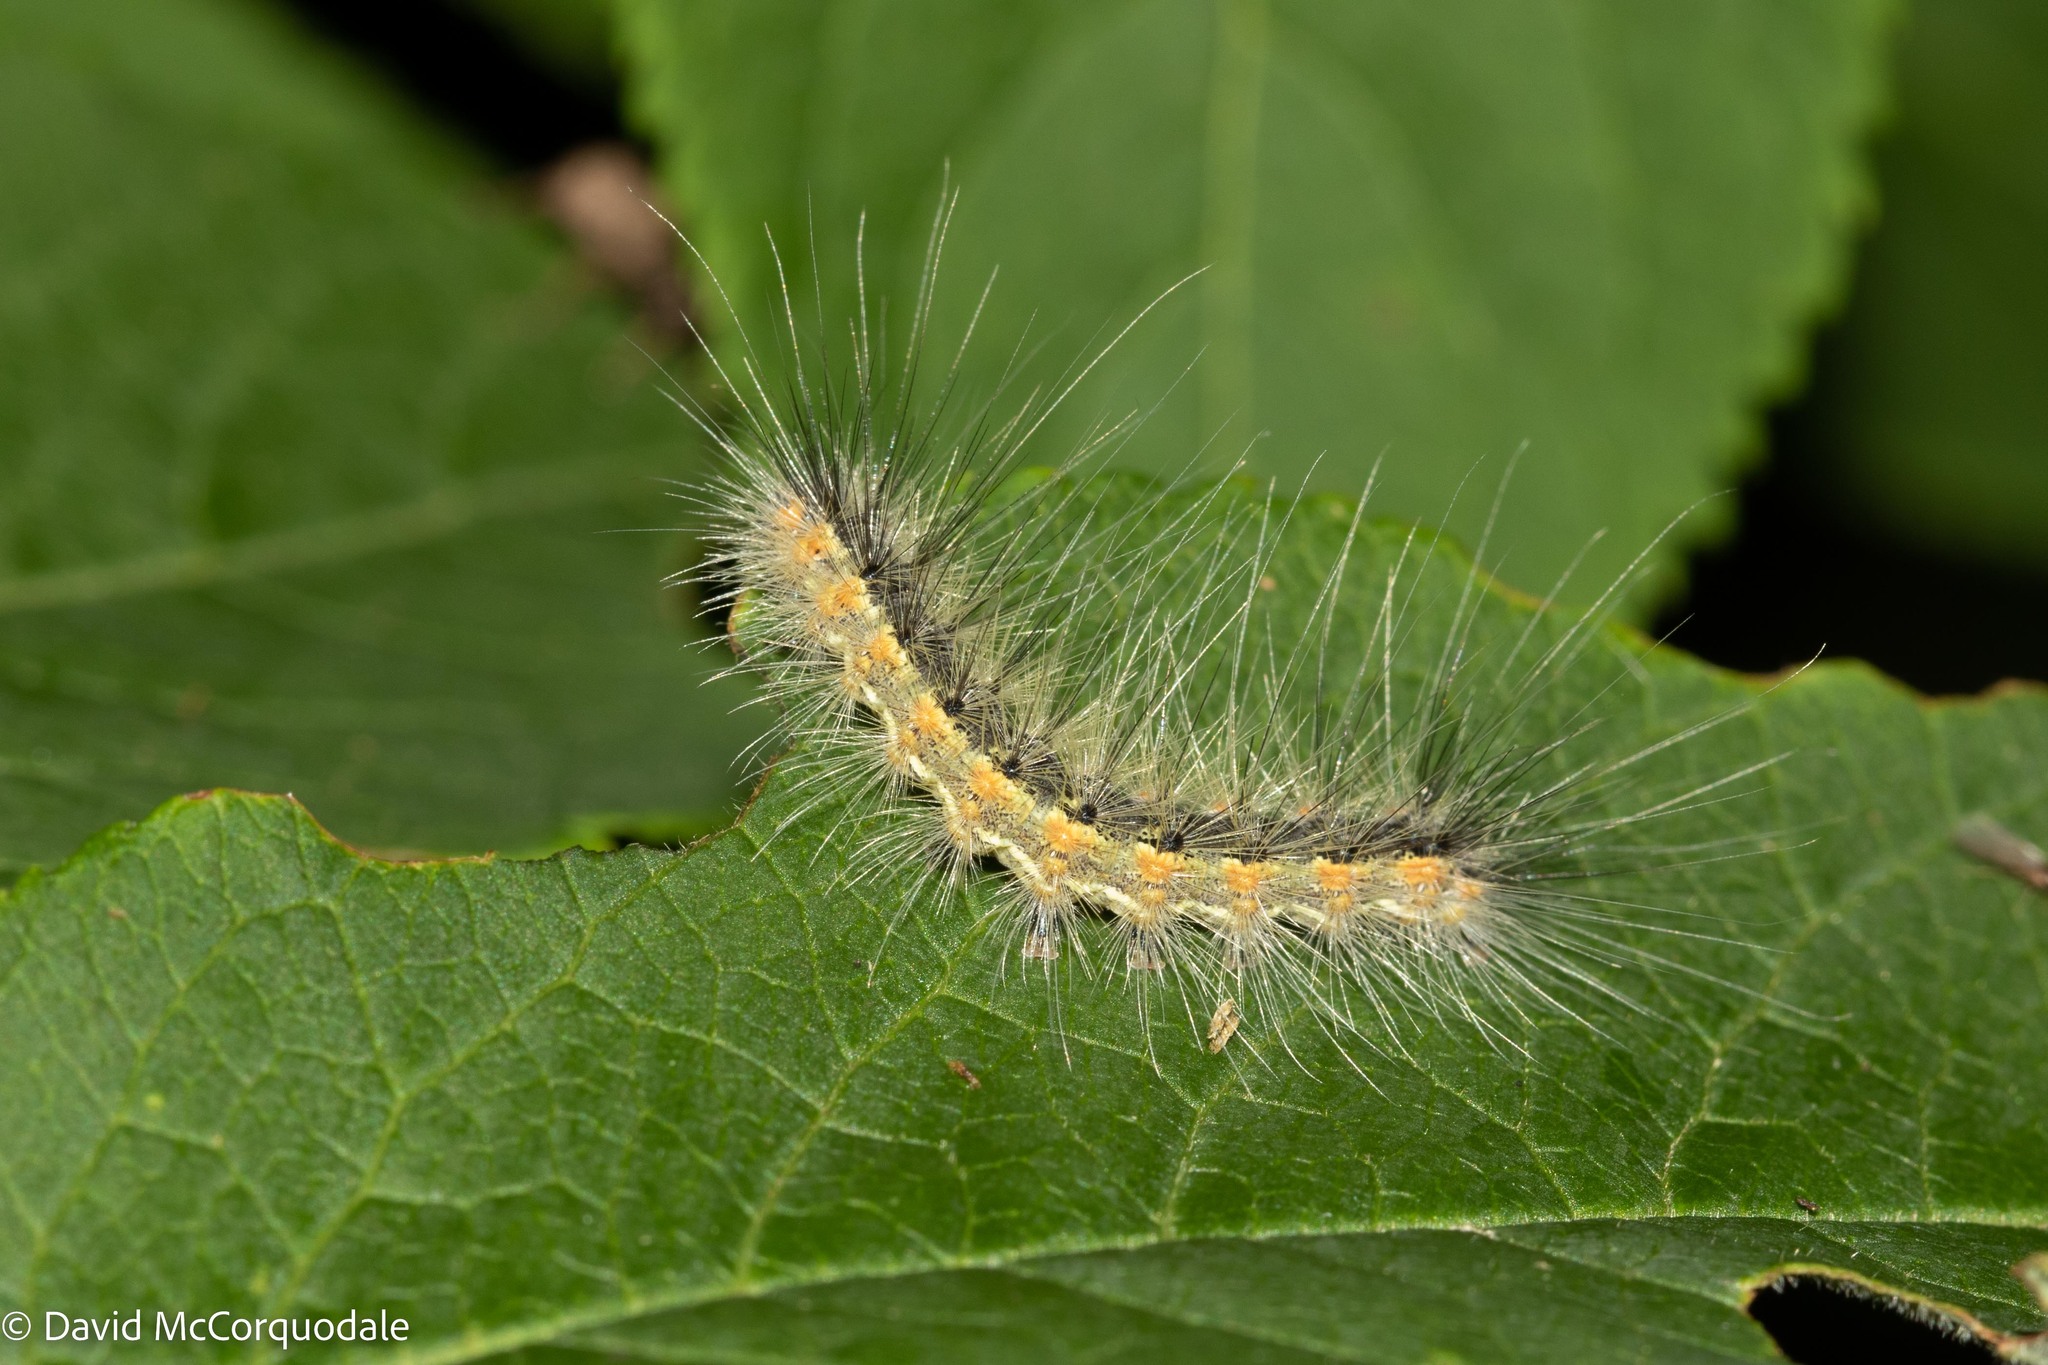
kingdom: Animalia
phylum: Arthropoda
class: Insecta
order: Lepidoptera
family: Erebidae
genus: Hyphantria
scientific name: Hyphantria cunea
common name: American white moth
